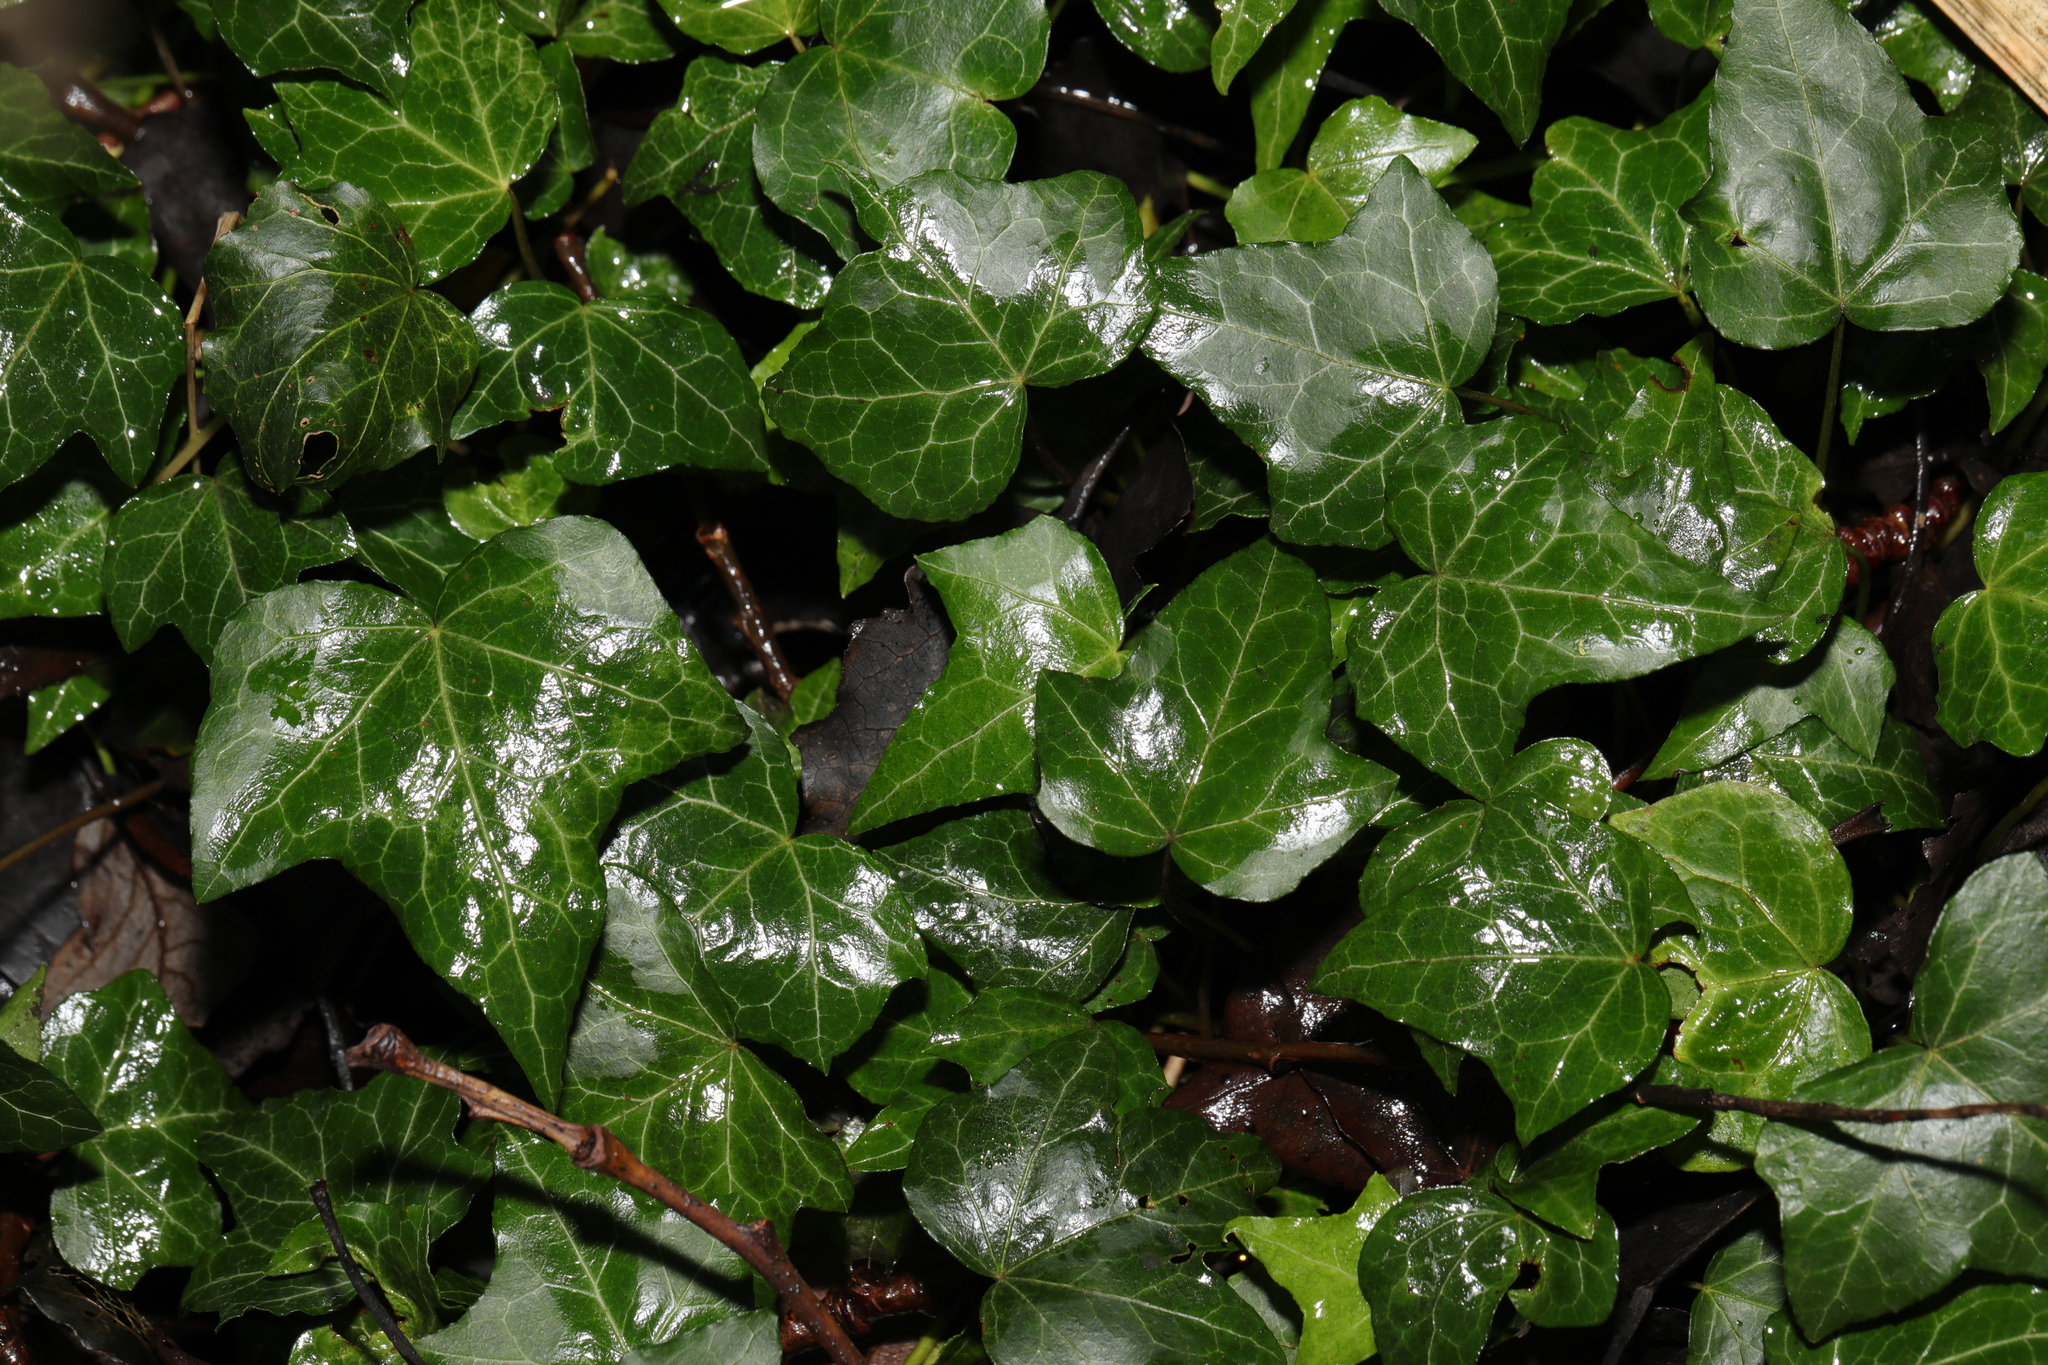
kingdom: Plantae
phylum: Tracheophyta
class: Magnoliopsida
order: Apiales
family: Araliaceae
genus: Hedera
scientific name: Hedera helix
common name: Ivy
